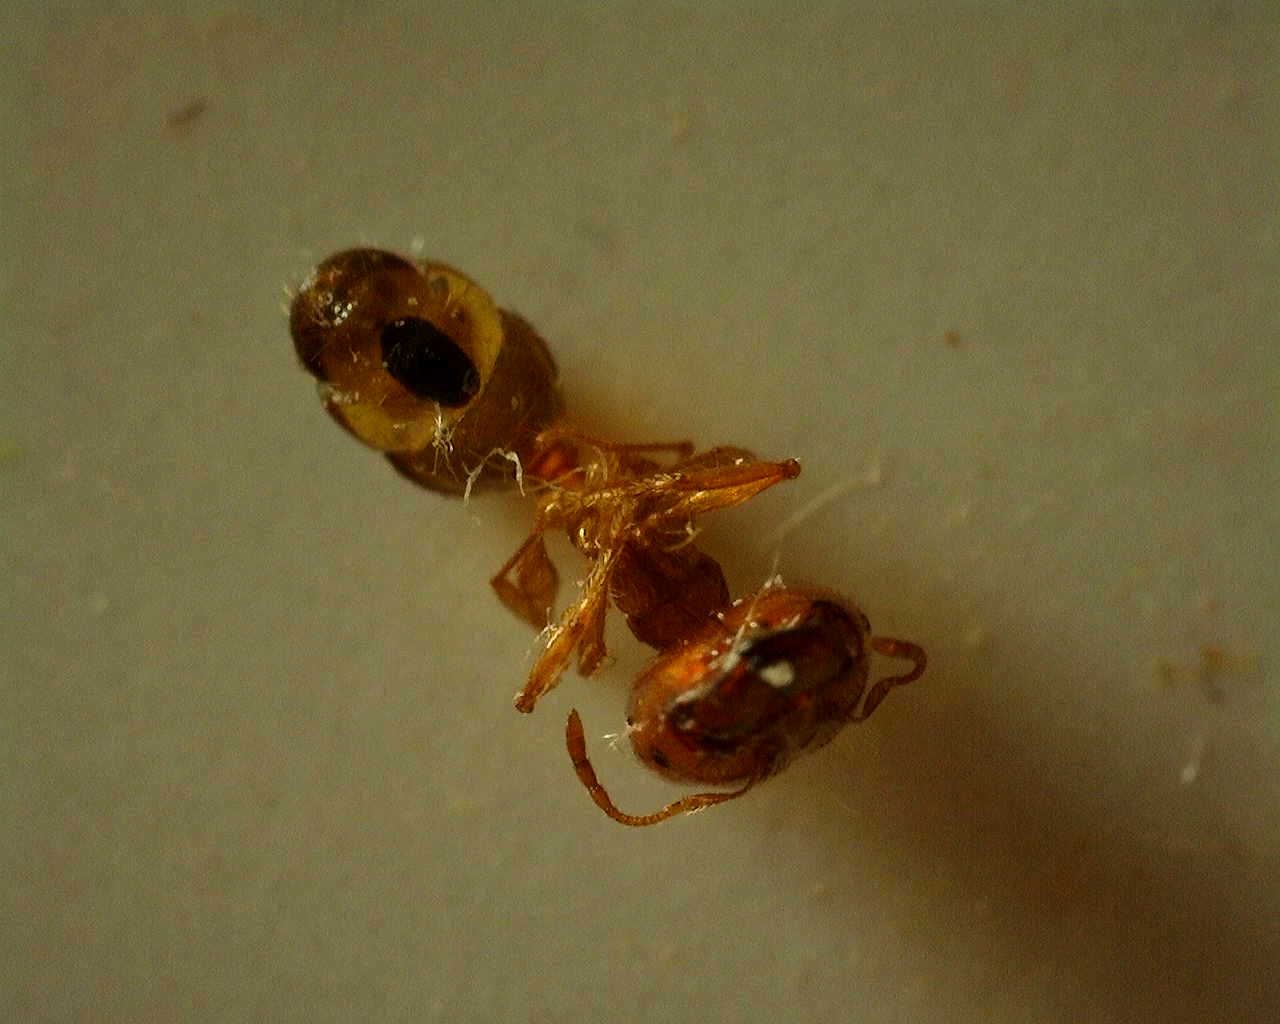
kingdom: Animalia
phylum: Arthropoda
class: Insecta
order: Hymenoptera
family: Formicidae
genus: Pheidole
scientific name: Pheidole pallidula
